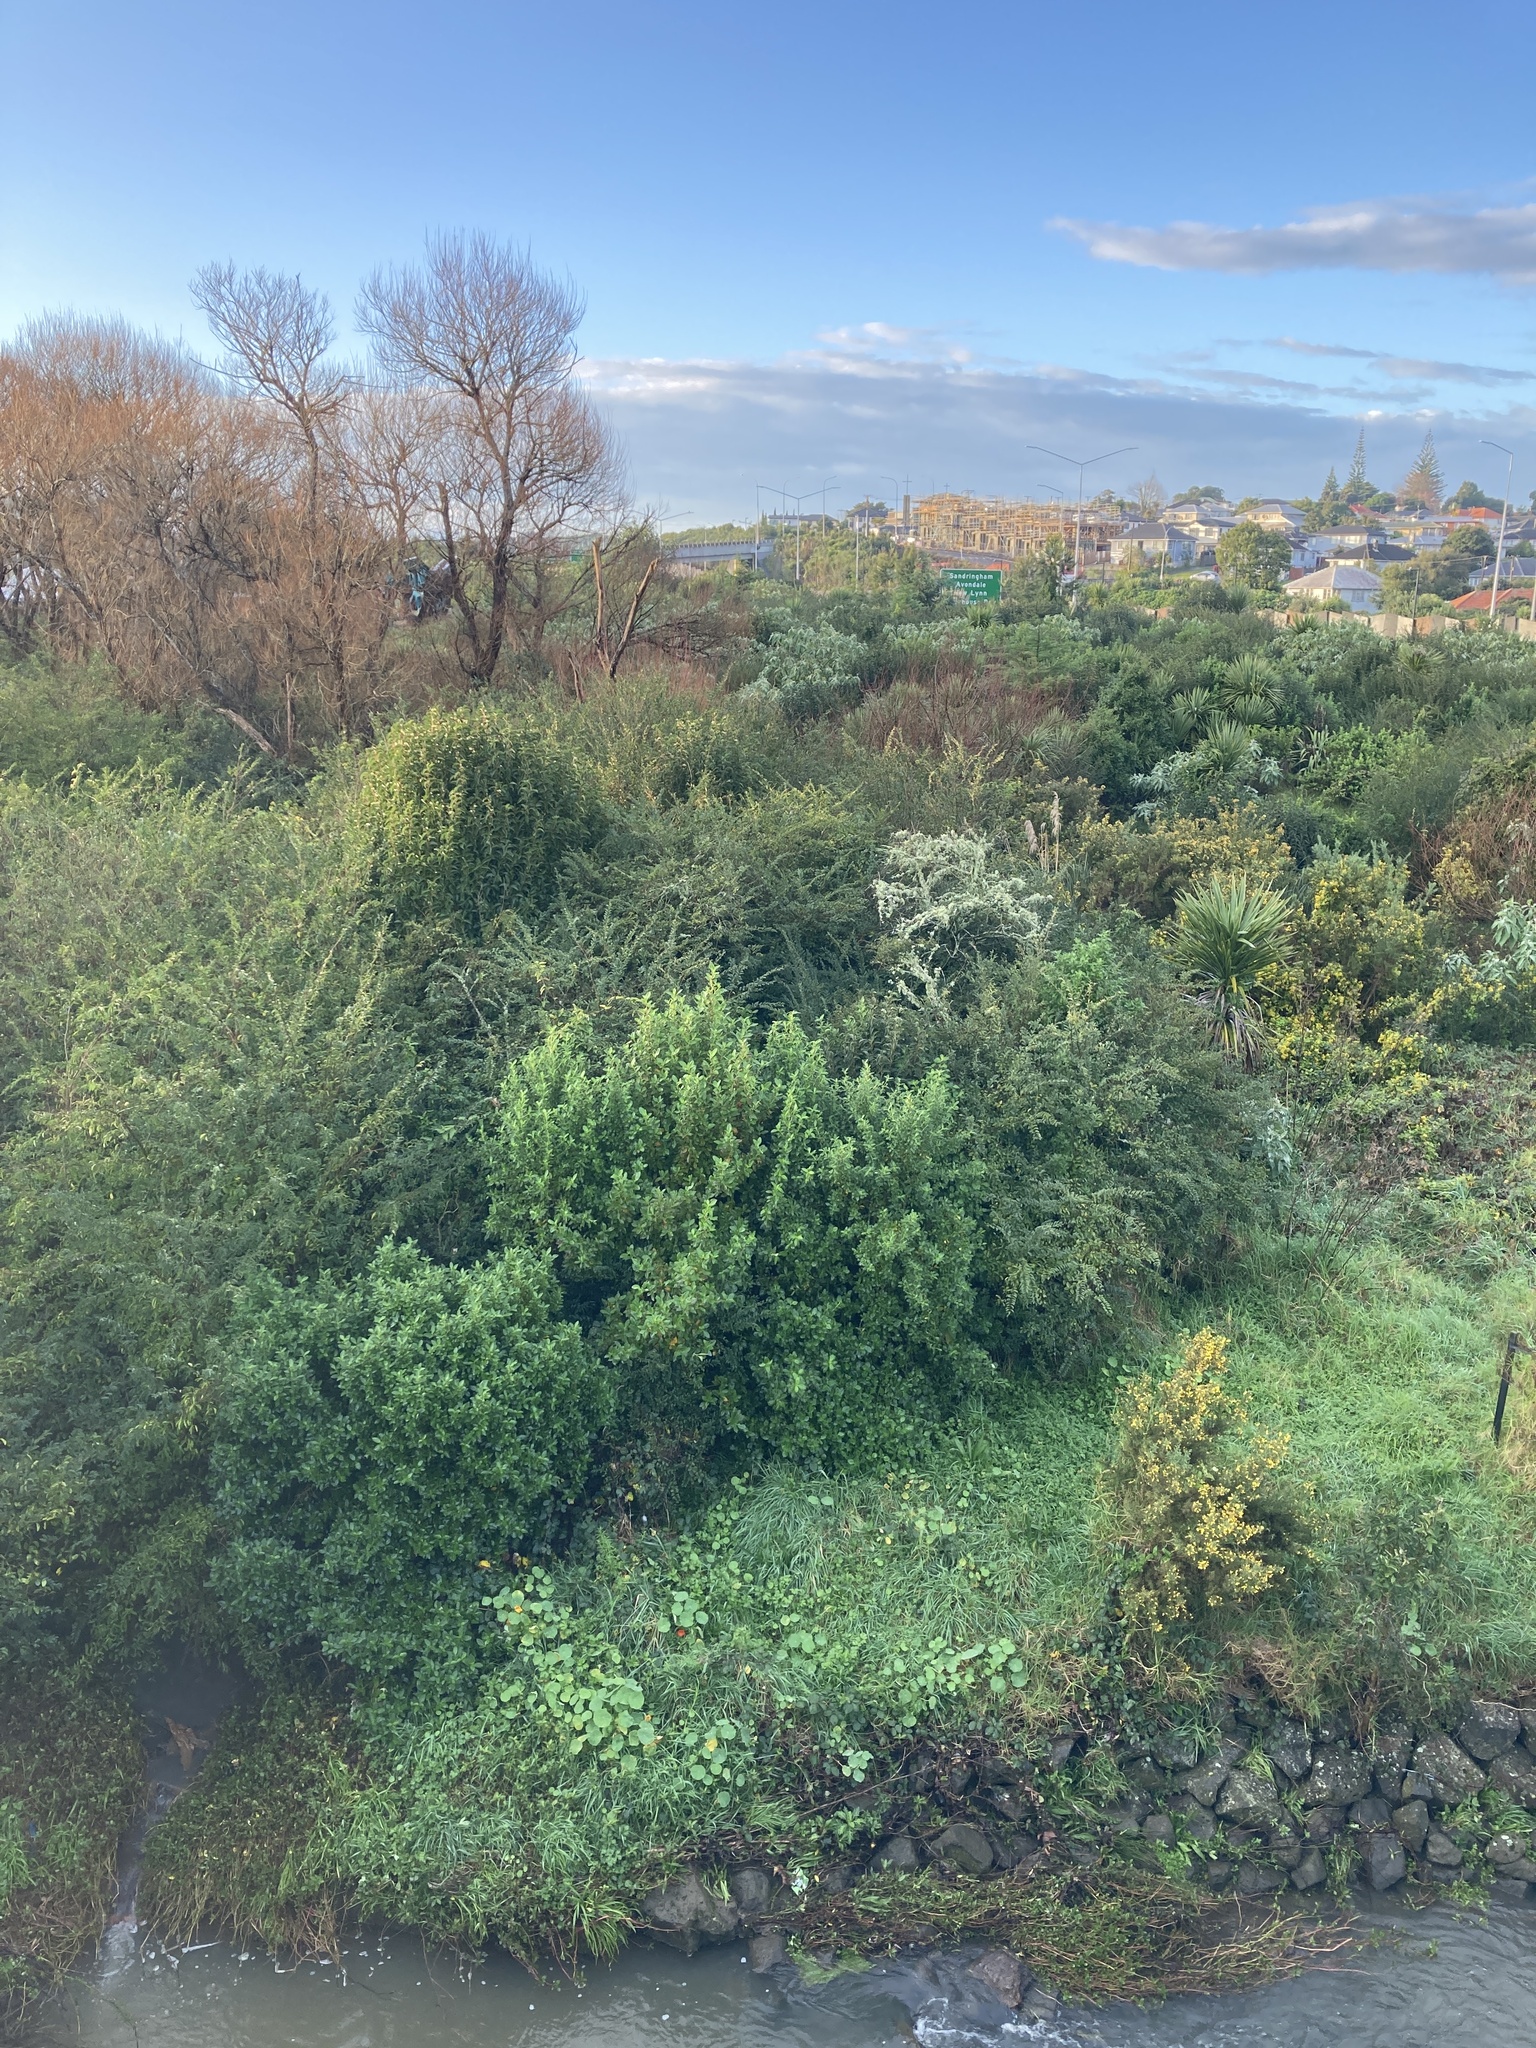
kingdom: Plantae
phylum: Tracheophyta
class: Magnoliopsida
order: Lamiales
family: Oleaceae
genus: Ligustrum
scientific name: Ligustrum sinense
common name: Chinese privet
